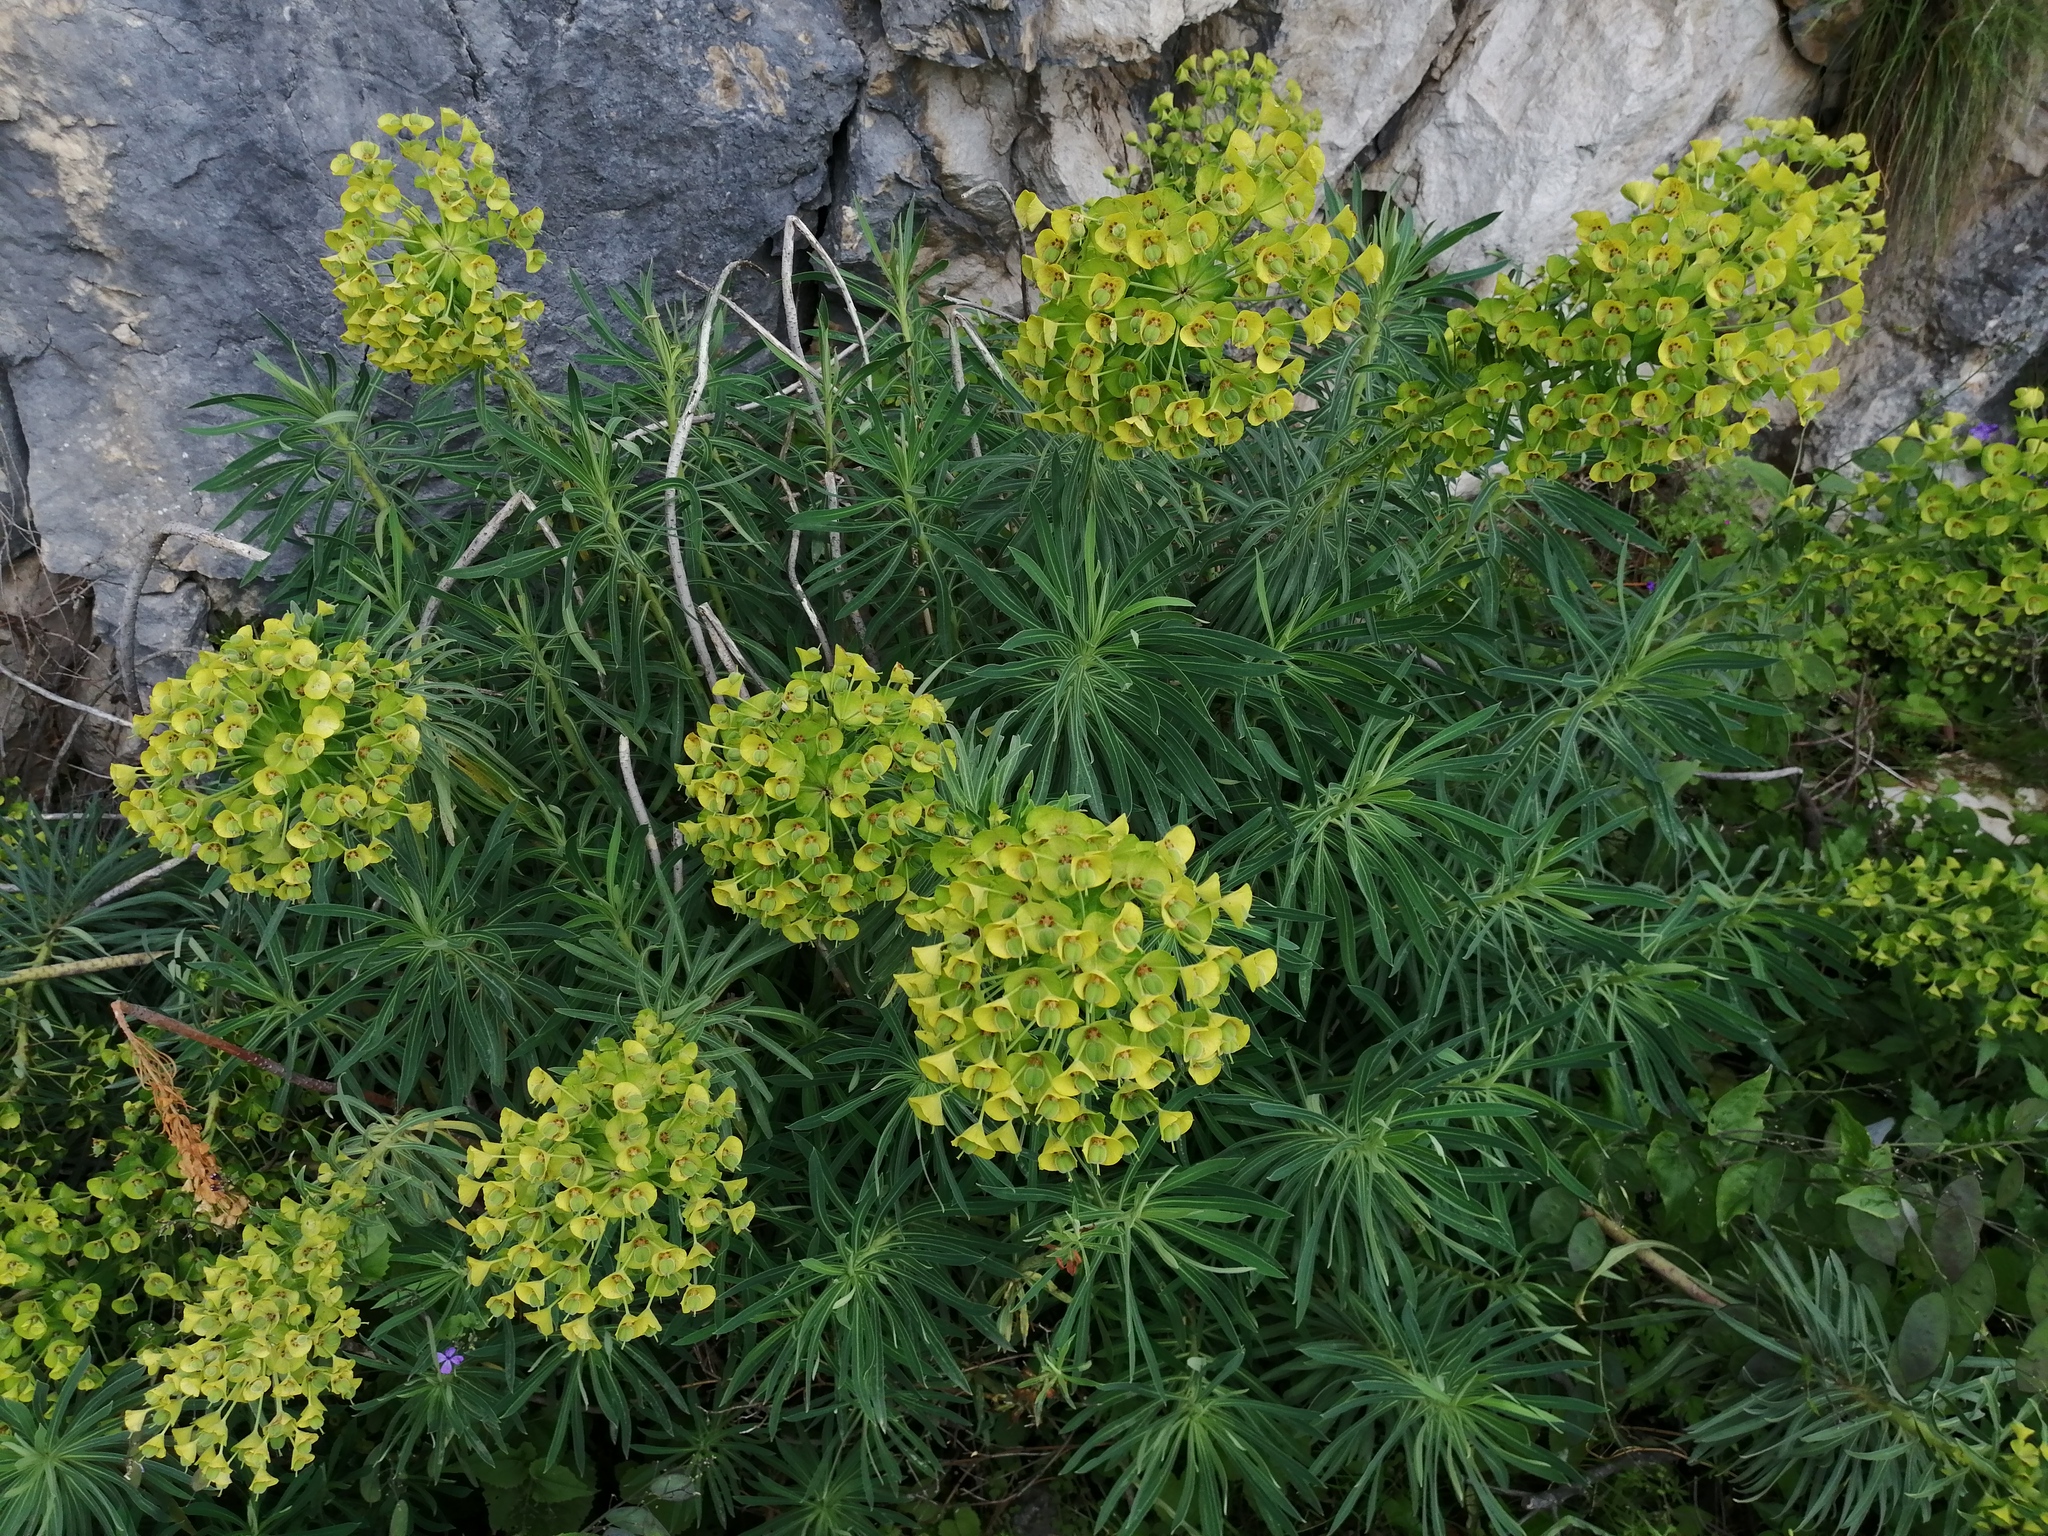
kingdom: Plantae
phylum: Tracheophyta
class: Magnoliopsida
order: Malpighiales
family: Euphorbiaceae
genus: Euphorbia
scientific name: Euphorbia characias
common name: Mediterranean spurge
